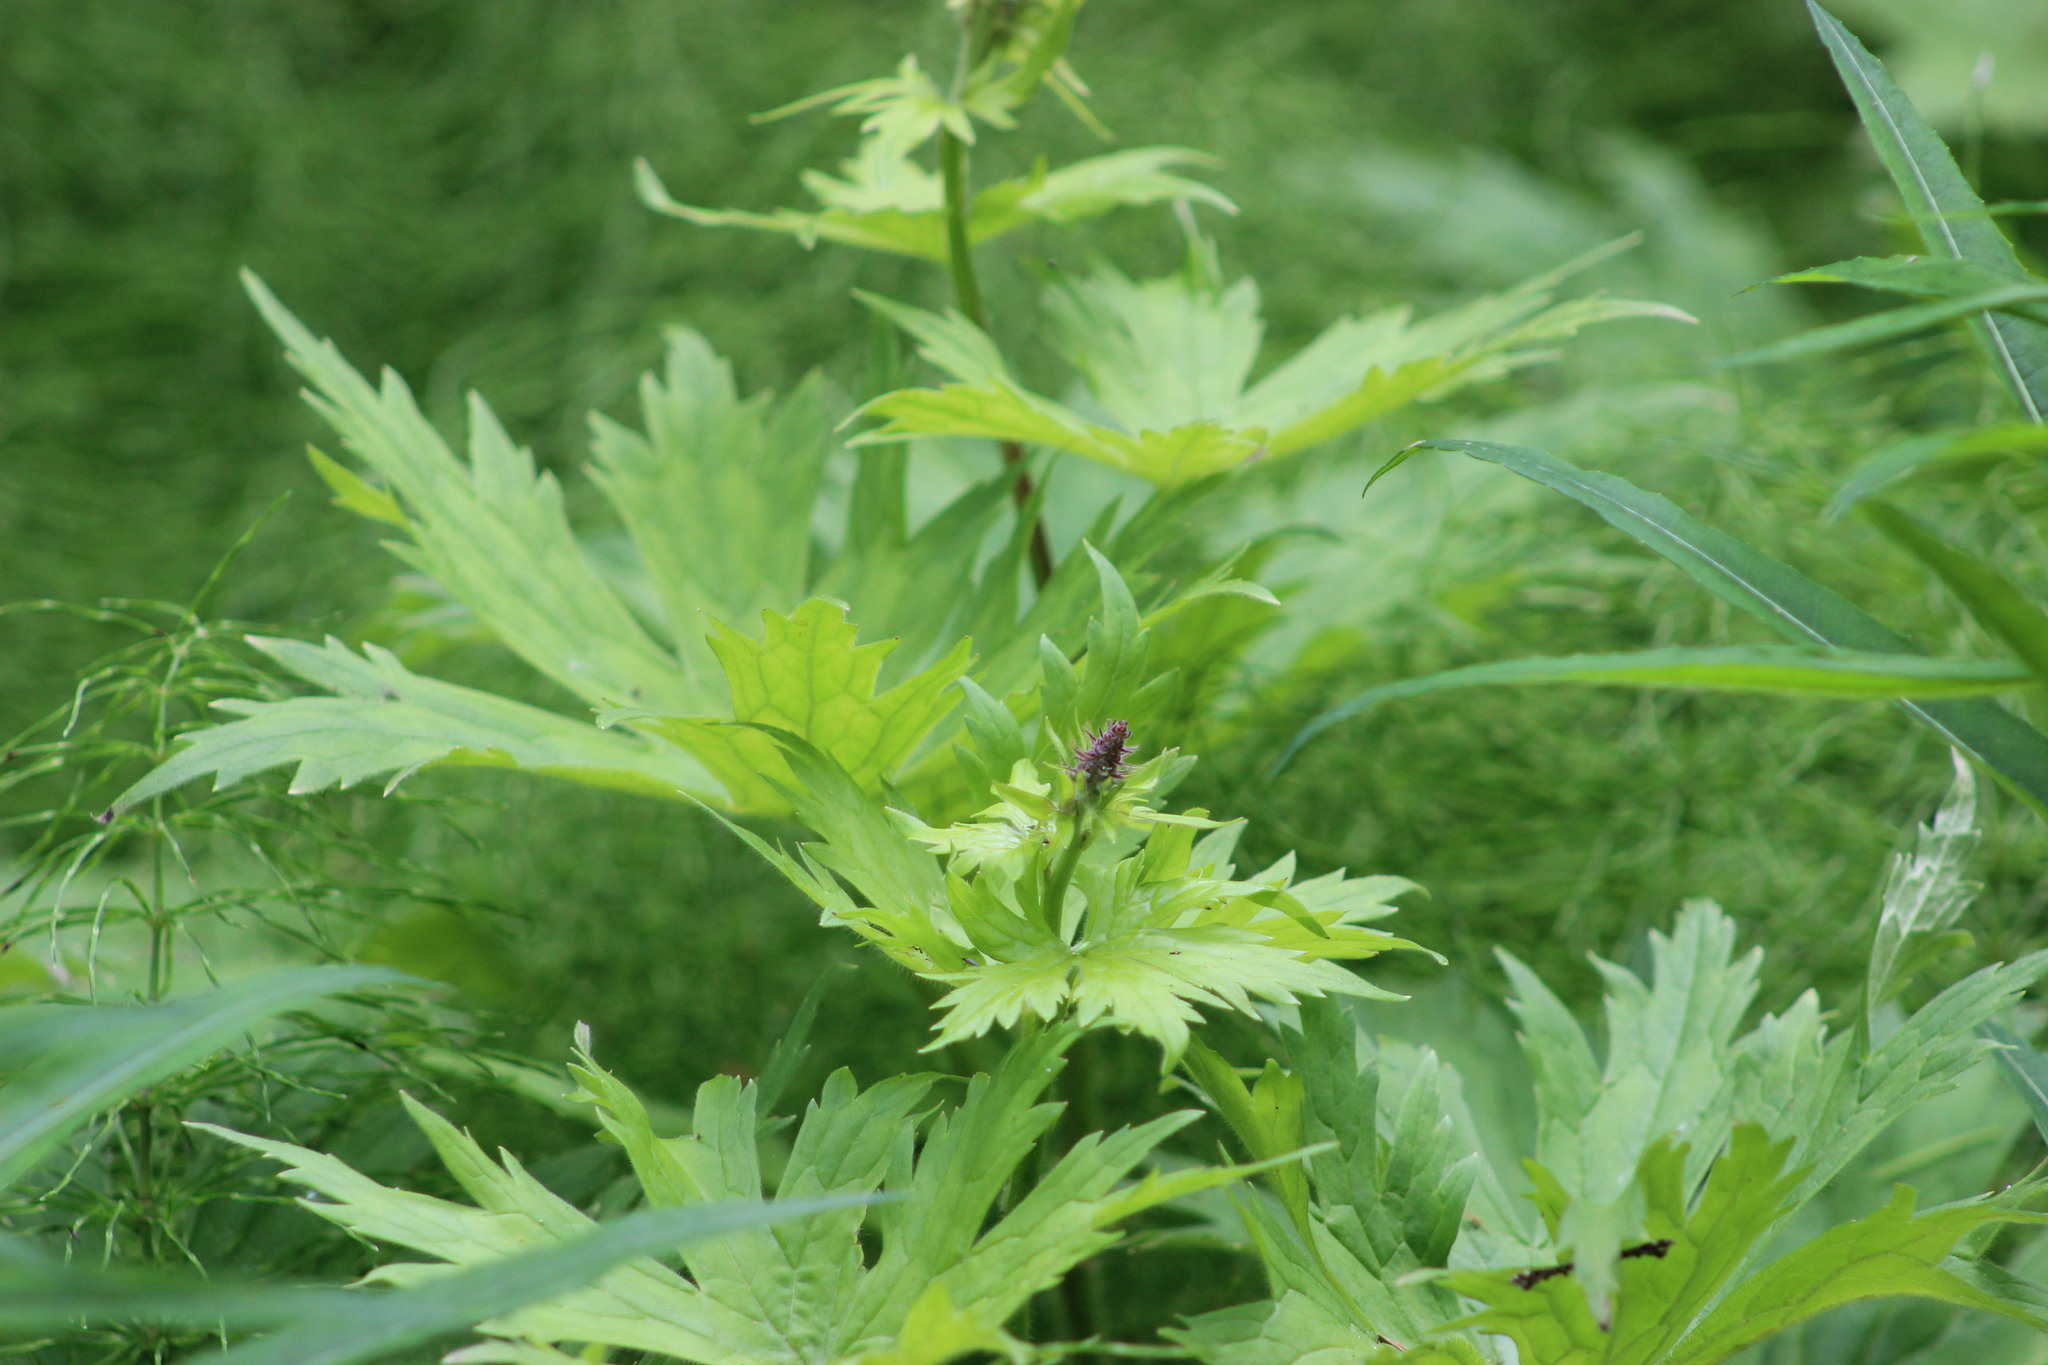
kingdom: Plantae
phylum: Tracheophyta
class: Magnoliopsida
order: Ranunculales
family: Ranunculaceae
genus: Aconitum
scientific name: Aconitum septentrionale
